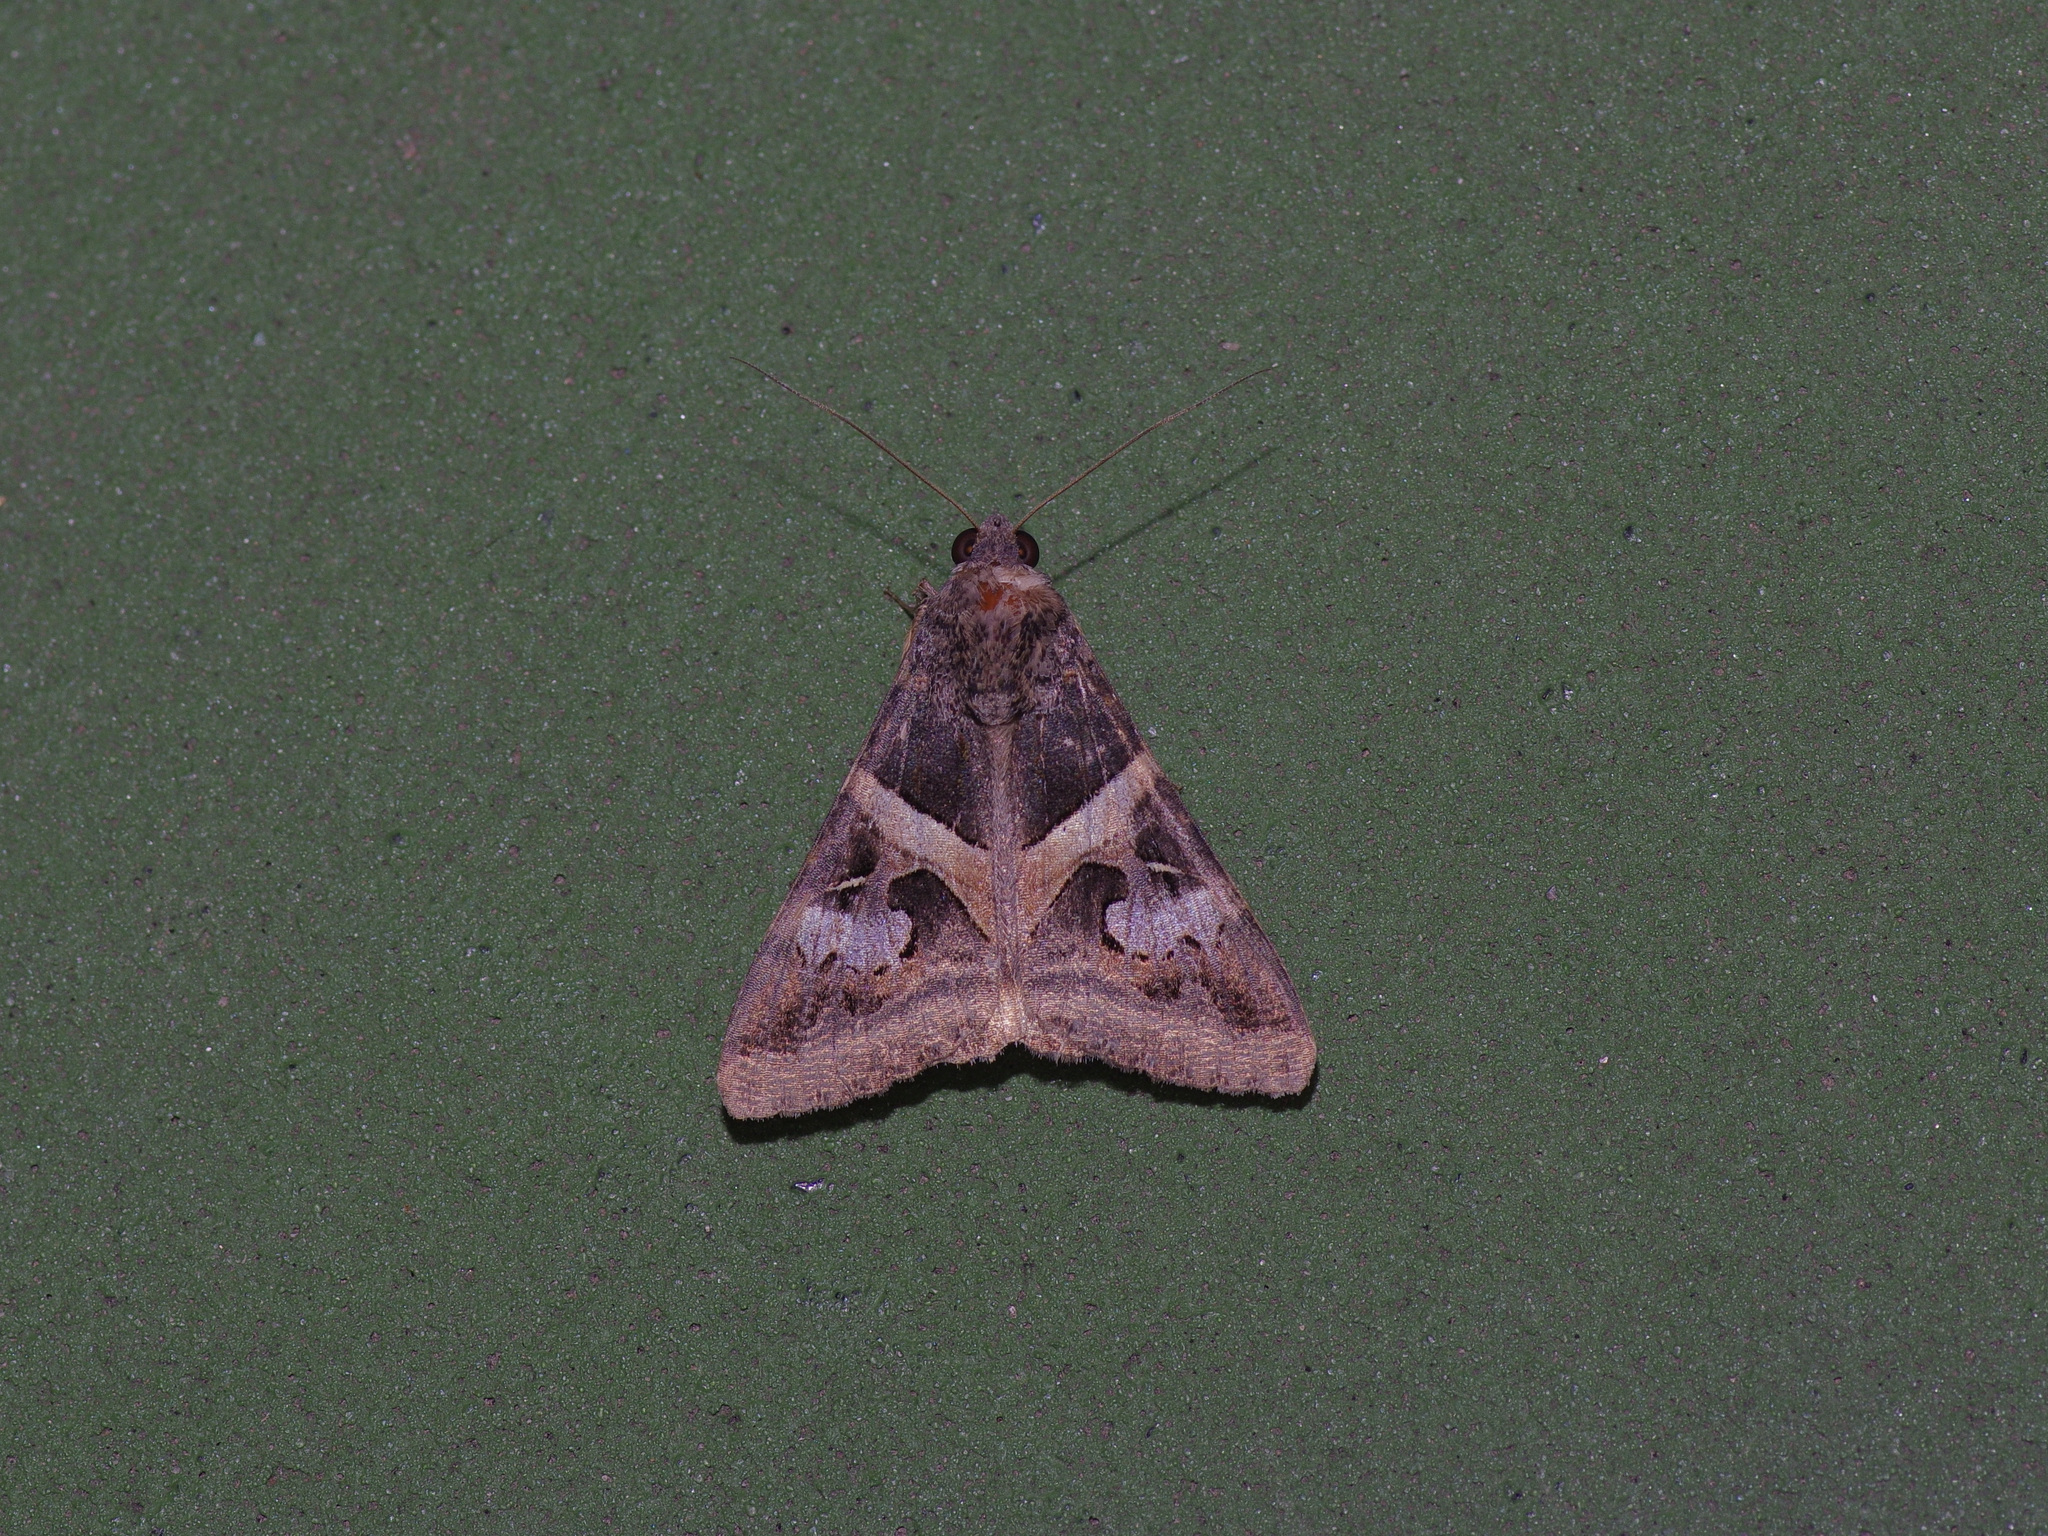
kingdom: Animalia
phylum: Arthropoda
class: Insecta
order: Lepidoptera
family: Erebidae
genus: Melipotis
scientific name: Melipotis indomita
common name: Moth
